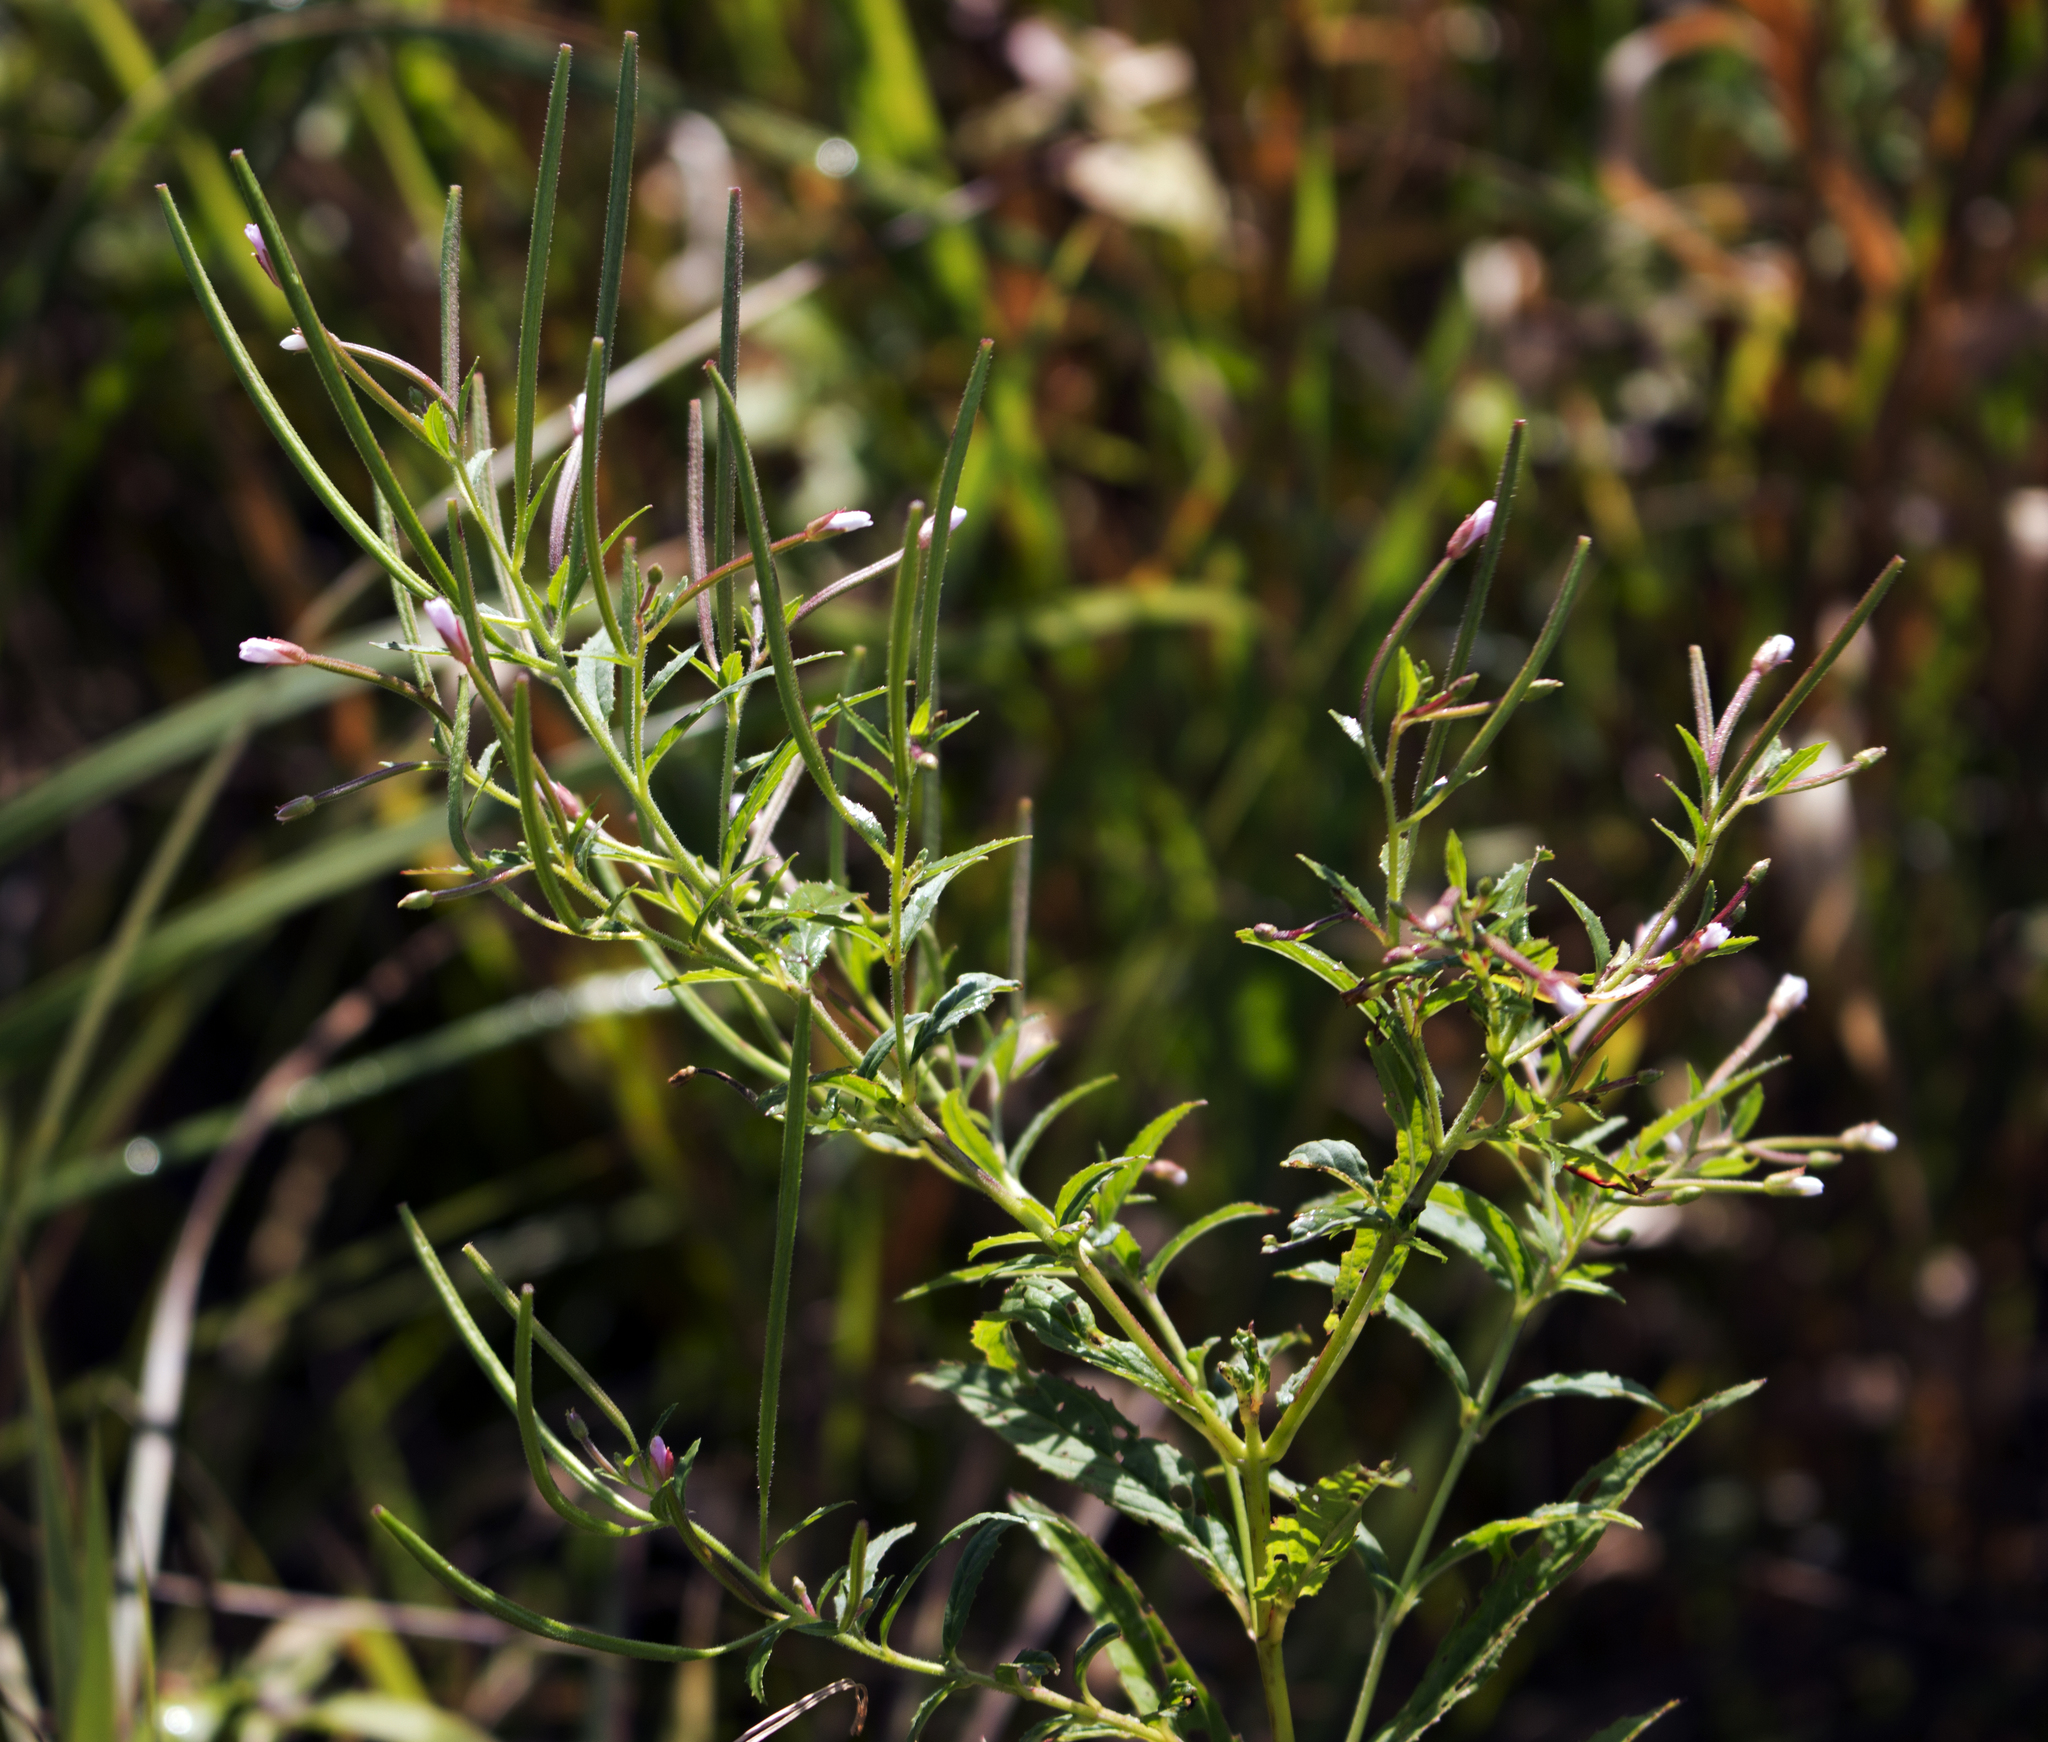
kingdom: Plantae
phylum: Tracheophyta
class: Magnoliopsida
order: Myrtales
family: Onagraceae
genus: Epilobium
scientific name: Epilobium coloratum
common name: Bronze willowherb
